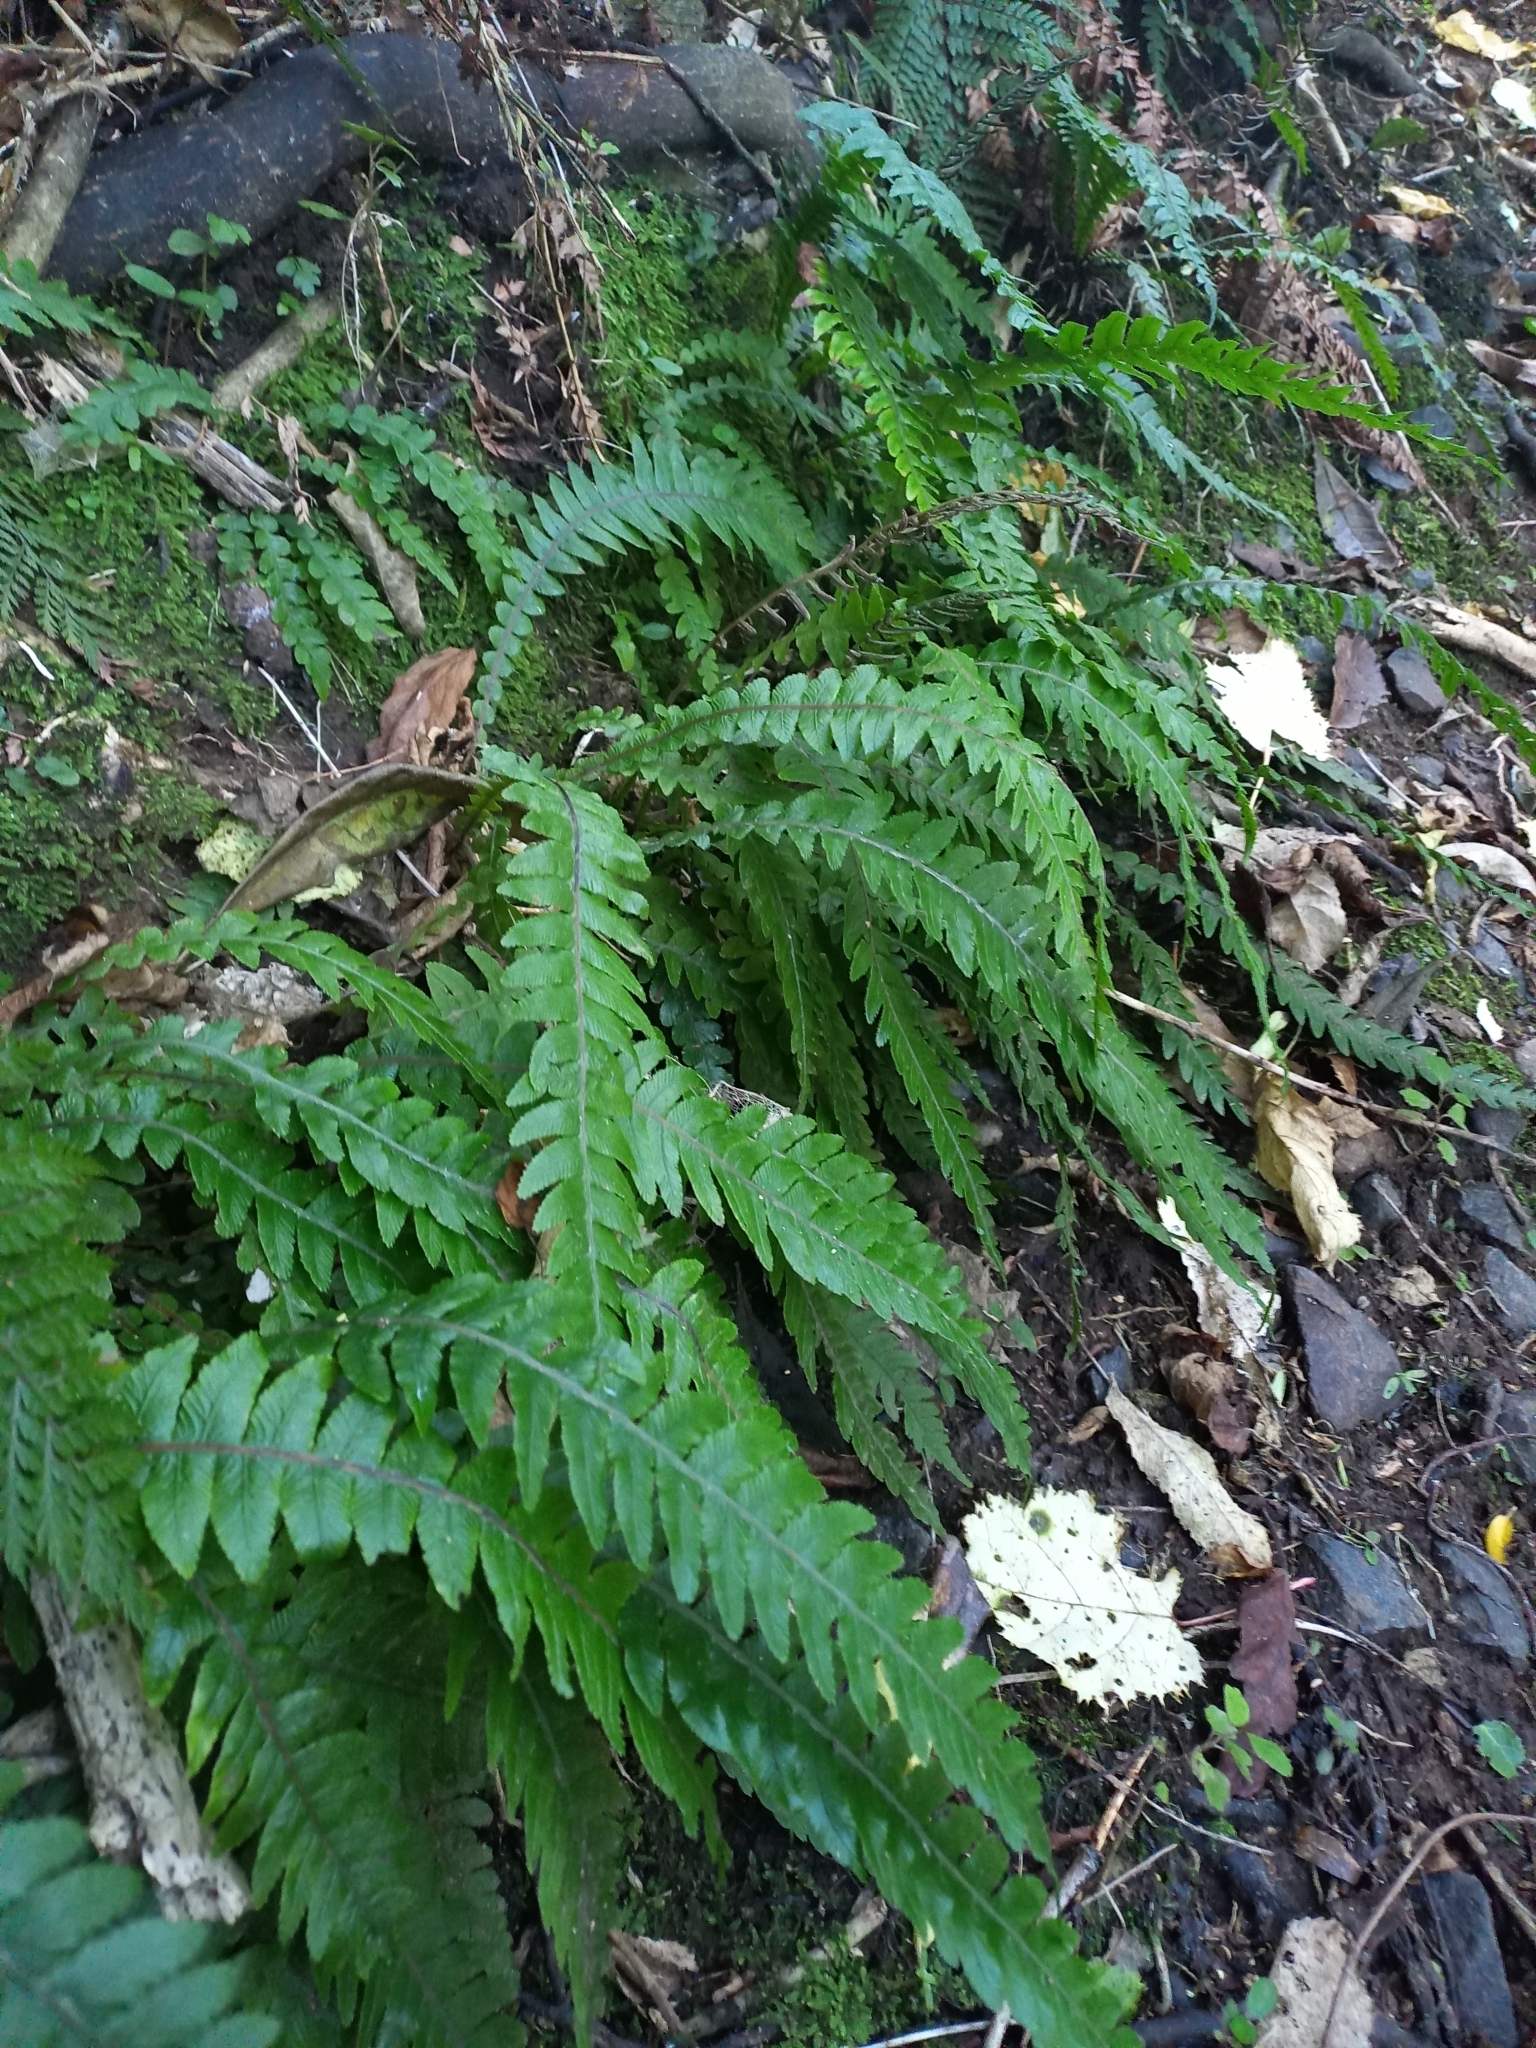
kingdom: Plantae
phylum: Tracheophyta
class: Polypodiopsida
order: Polypodiales
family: Blechnaceae
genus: Austroblechnum
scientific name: Austroblechnum lanceolatum
